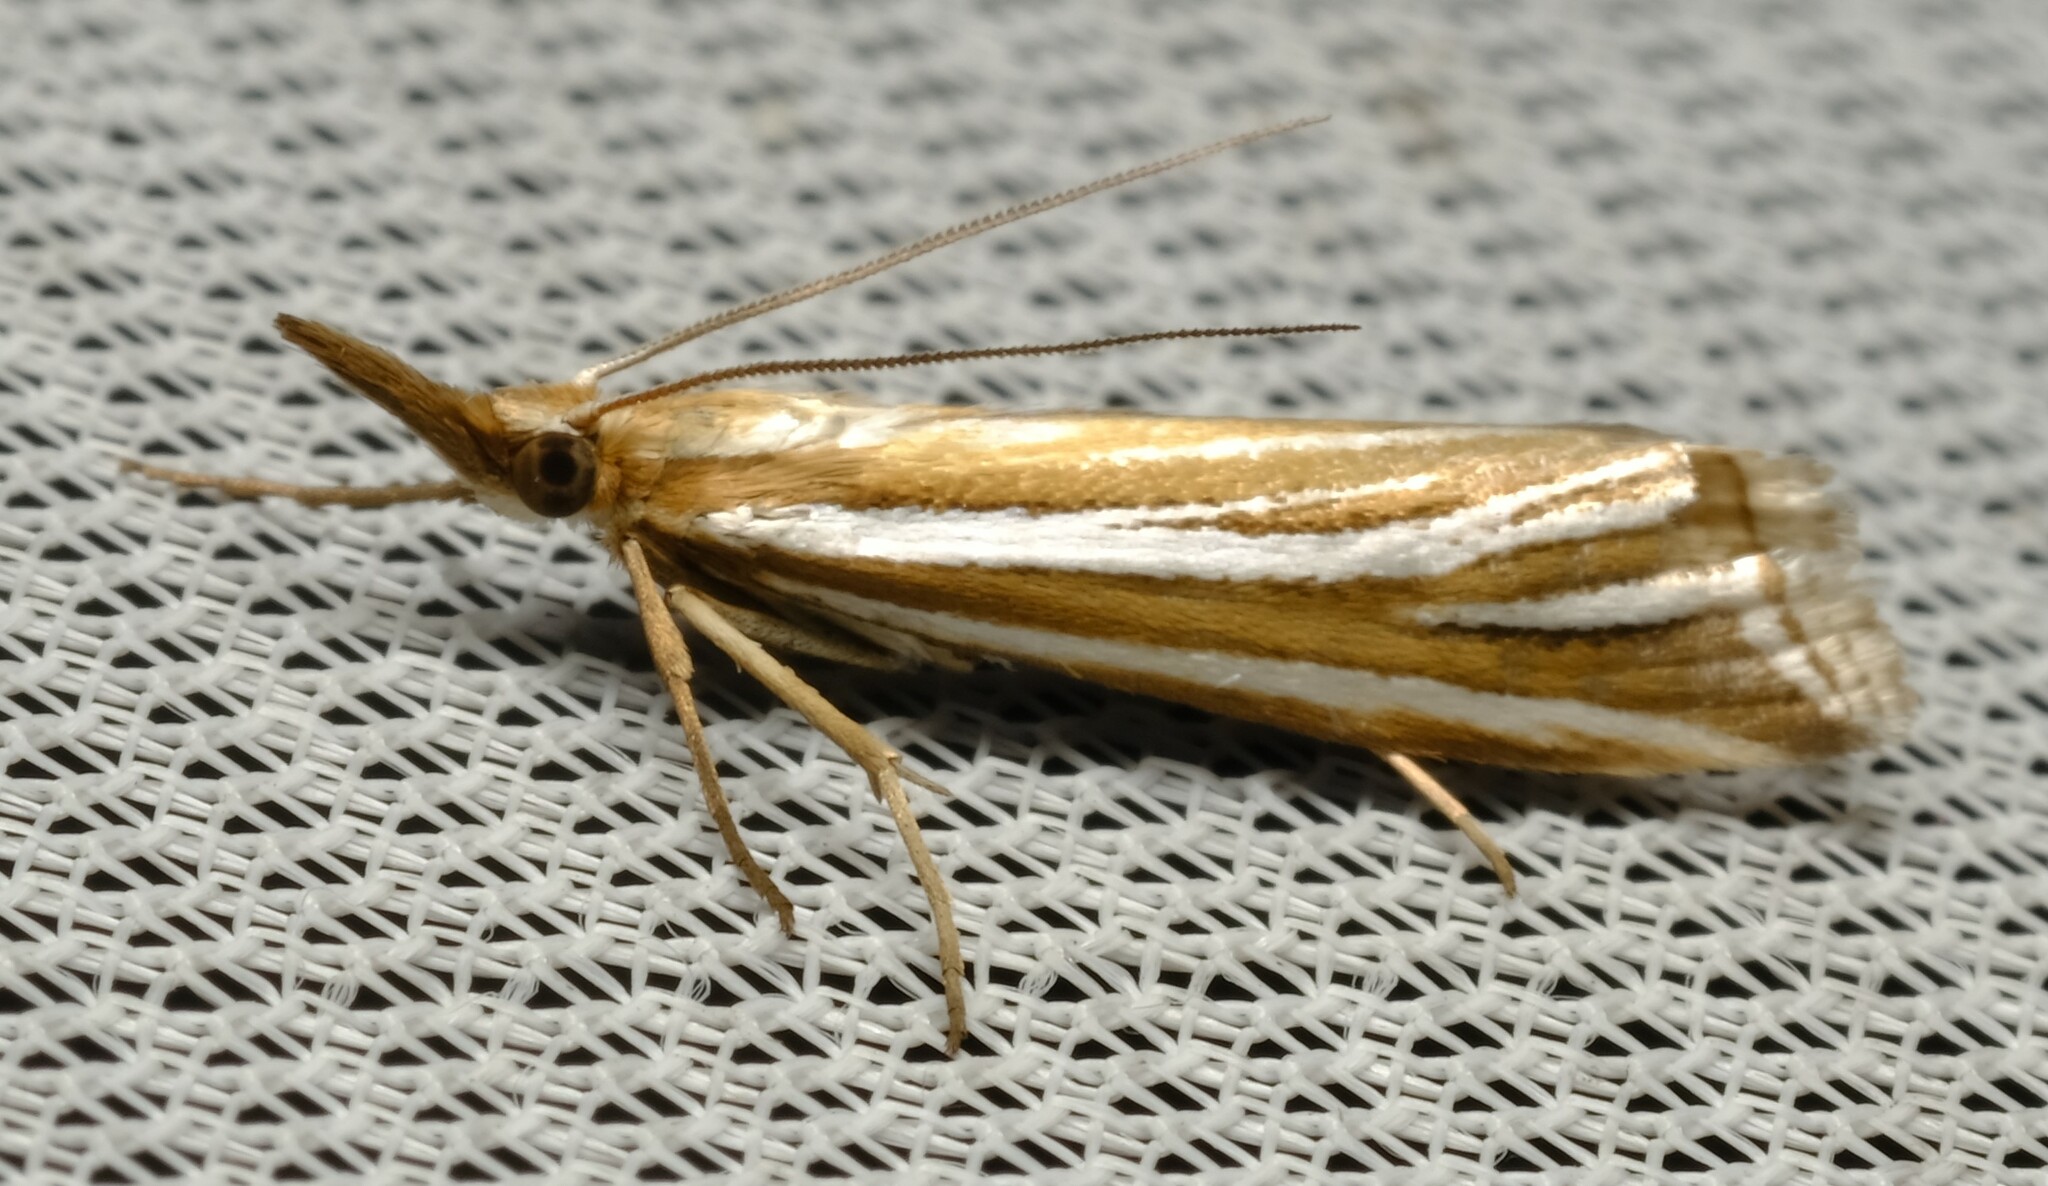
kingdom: Animalia
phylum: Arthropoda
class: Insecta
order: Lepidoptera
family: Crambidae
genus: Hednota
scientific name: Hednota relatalis
